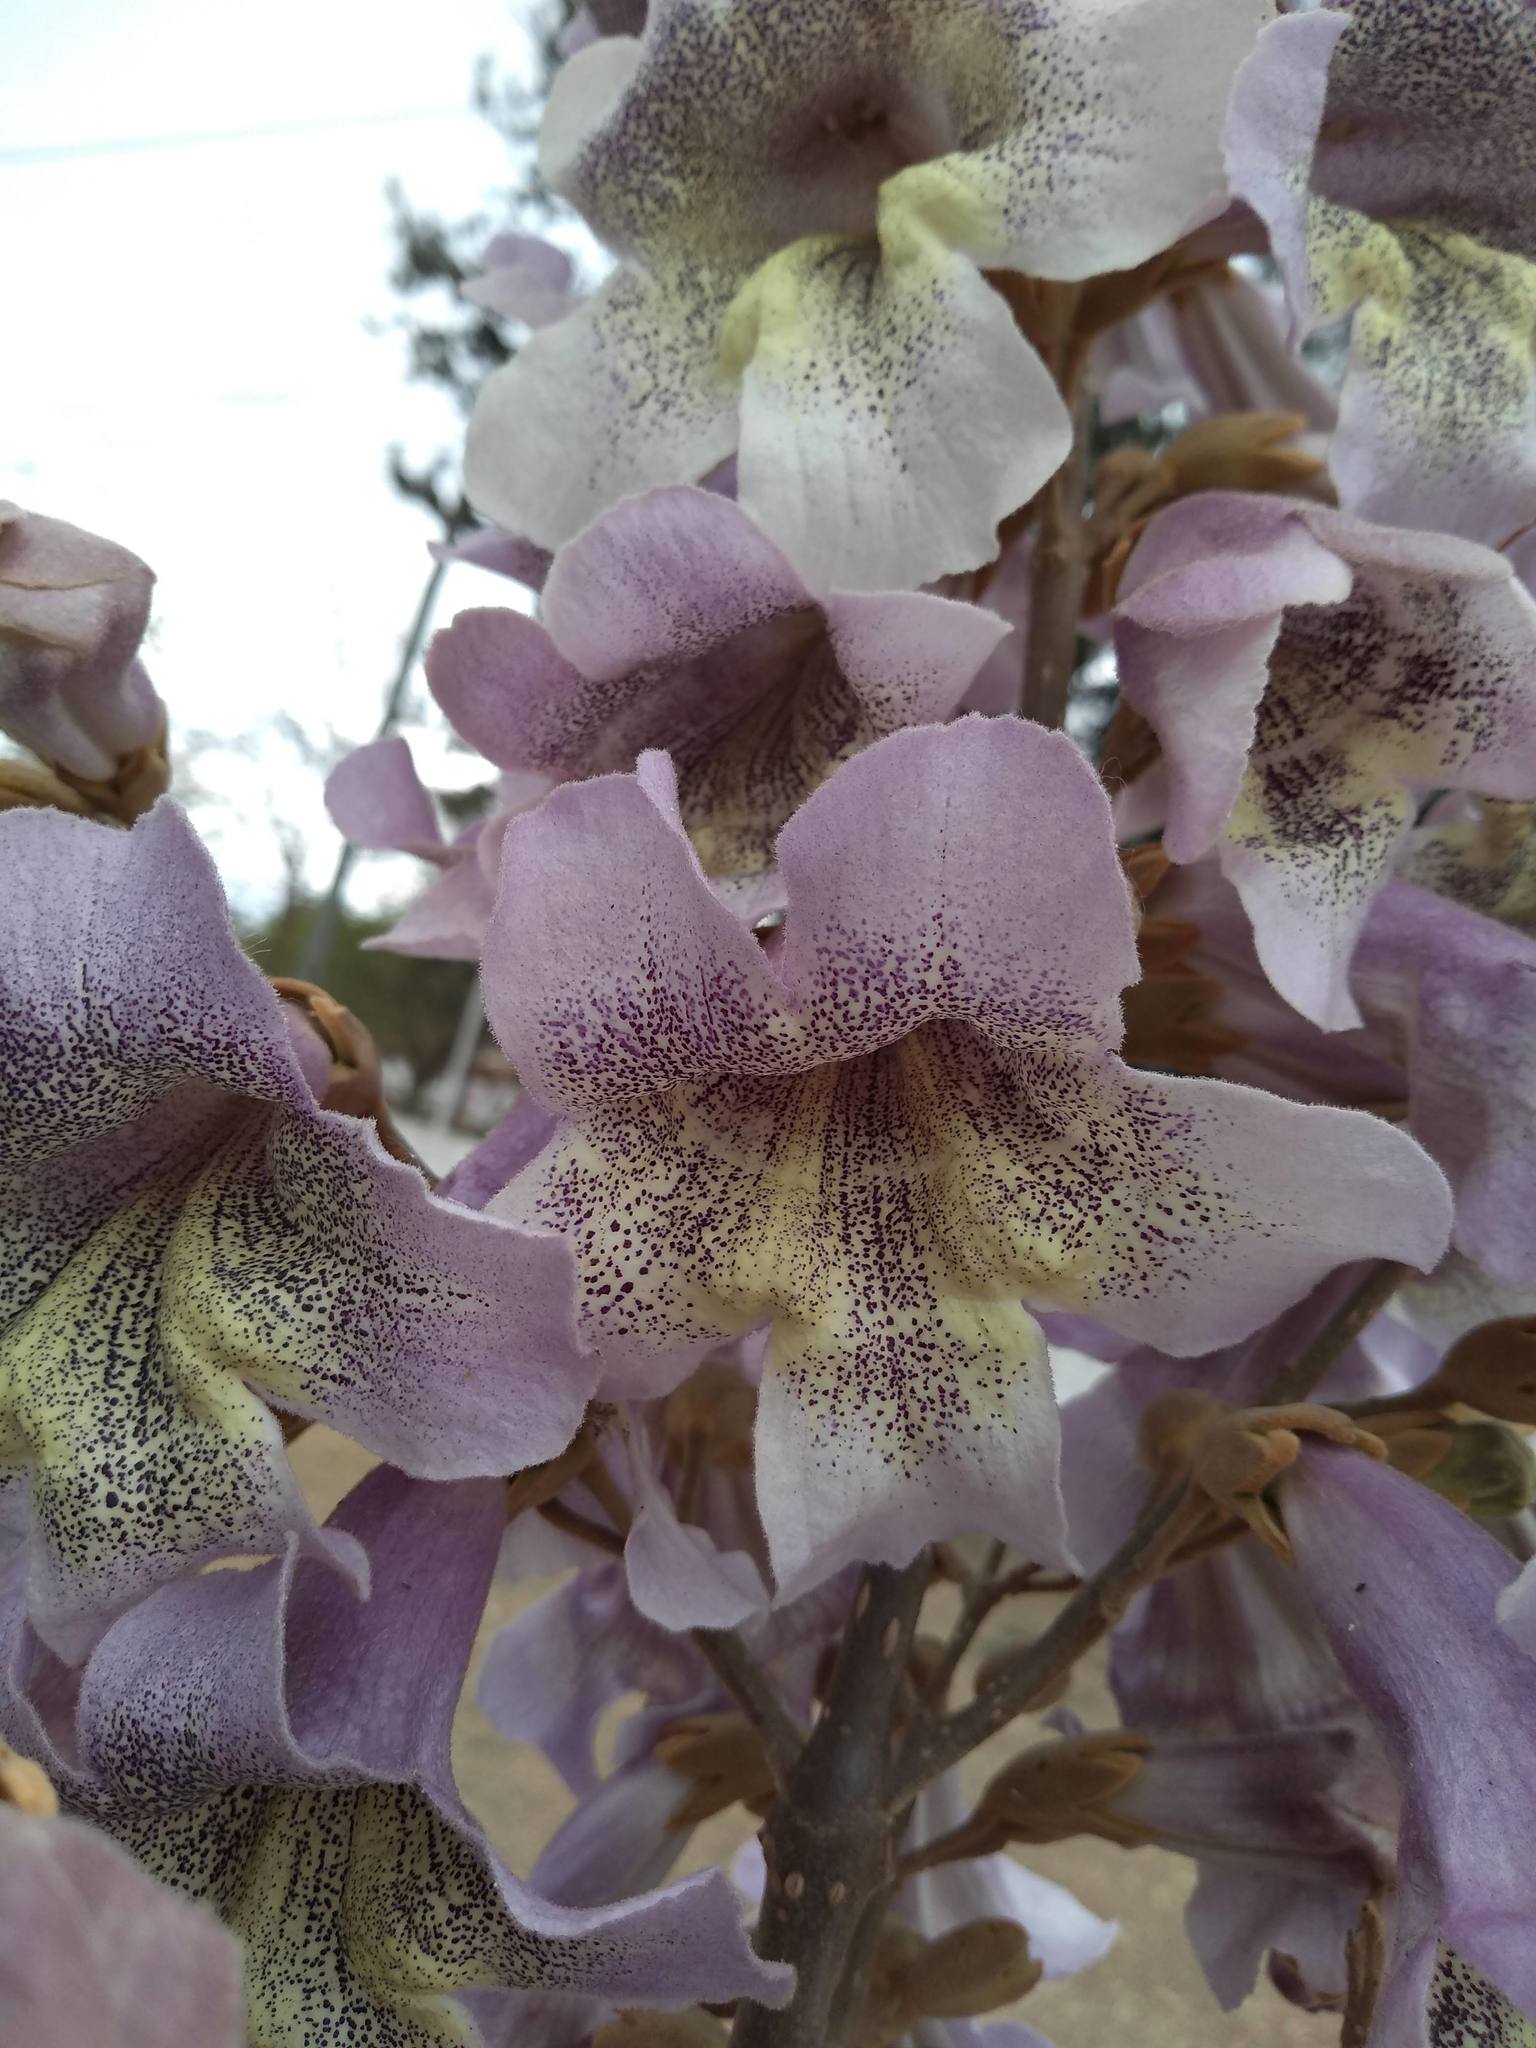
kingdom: Plantae
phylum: Tracheophyta
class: Magnoliopsida
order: Lamiales
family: Paulowniaceae
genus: Paulownia
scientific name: Paulownia tomentosa
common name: Foxglove-tree
